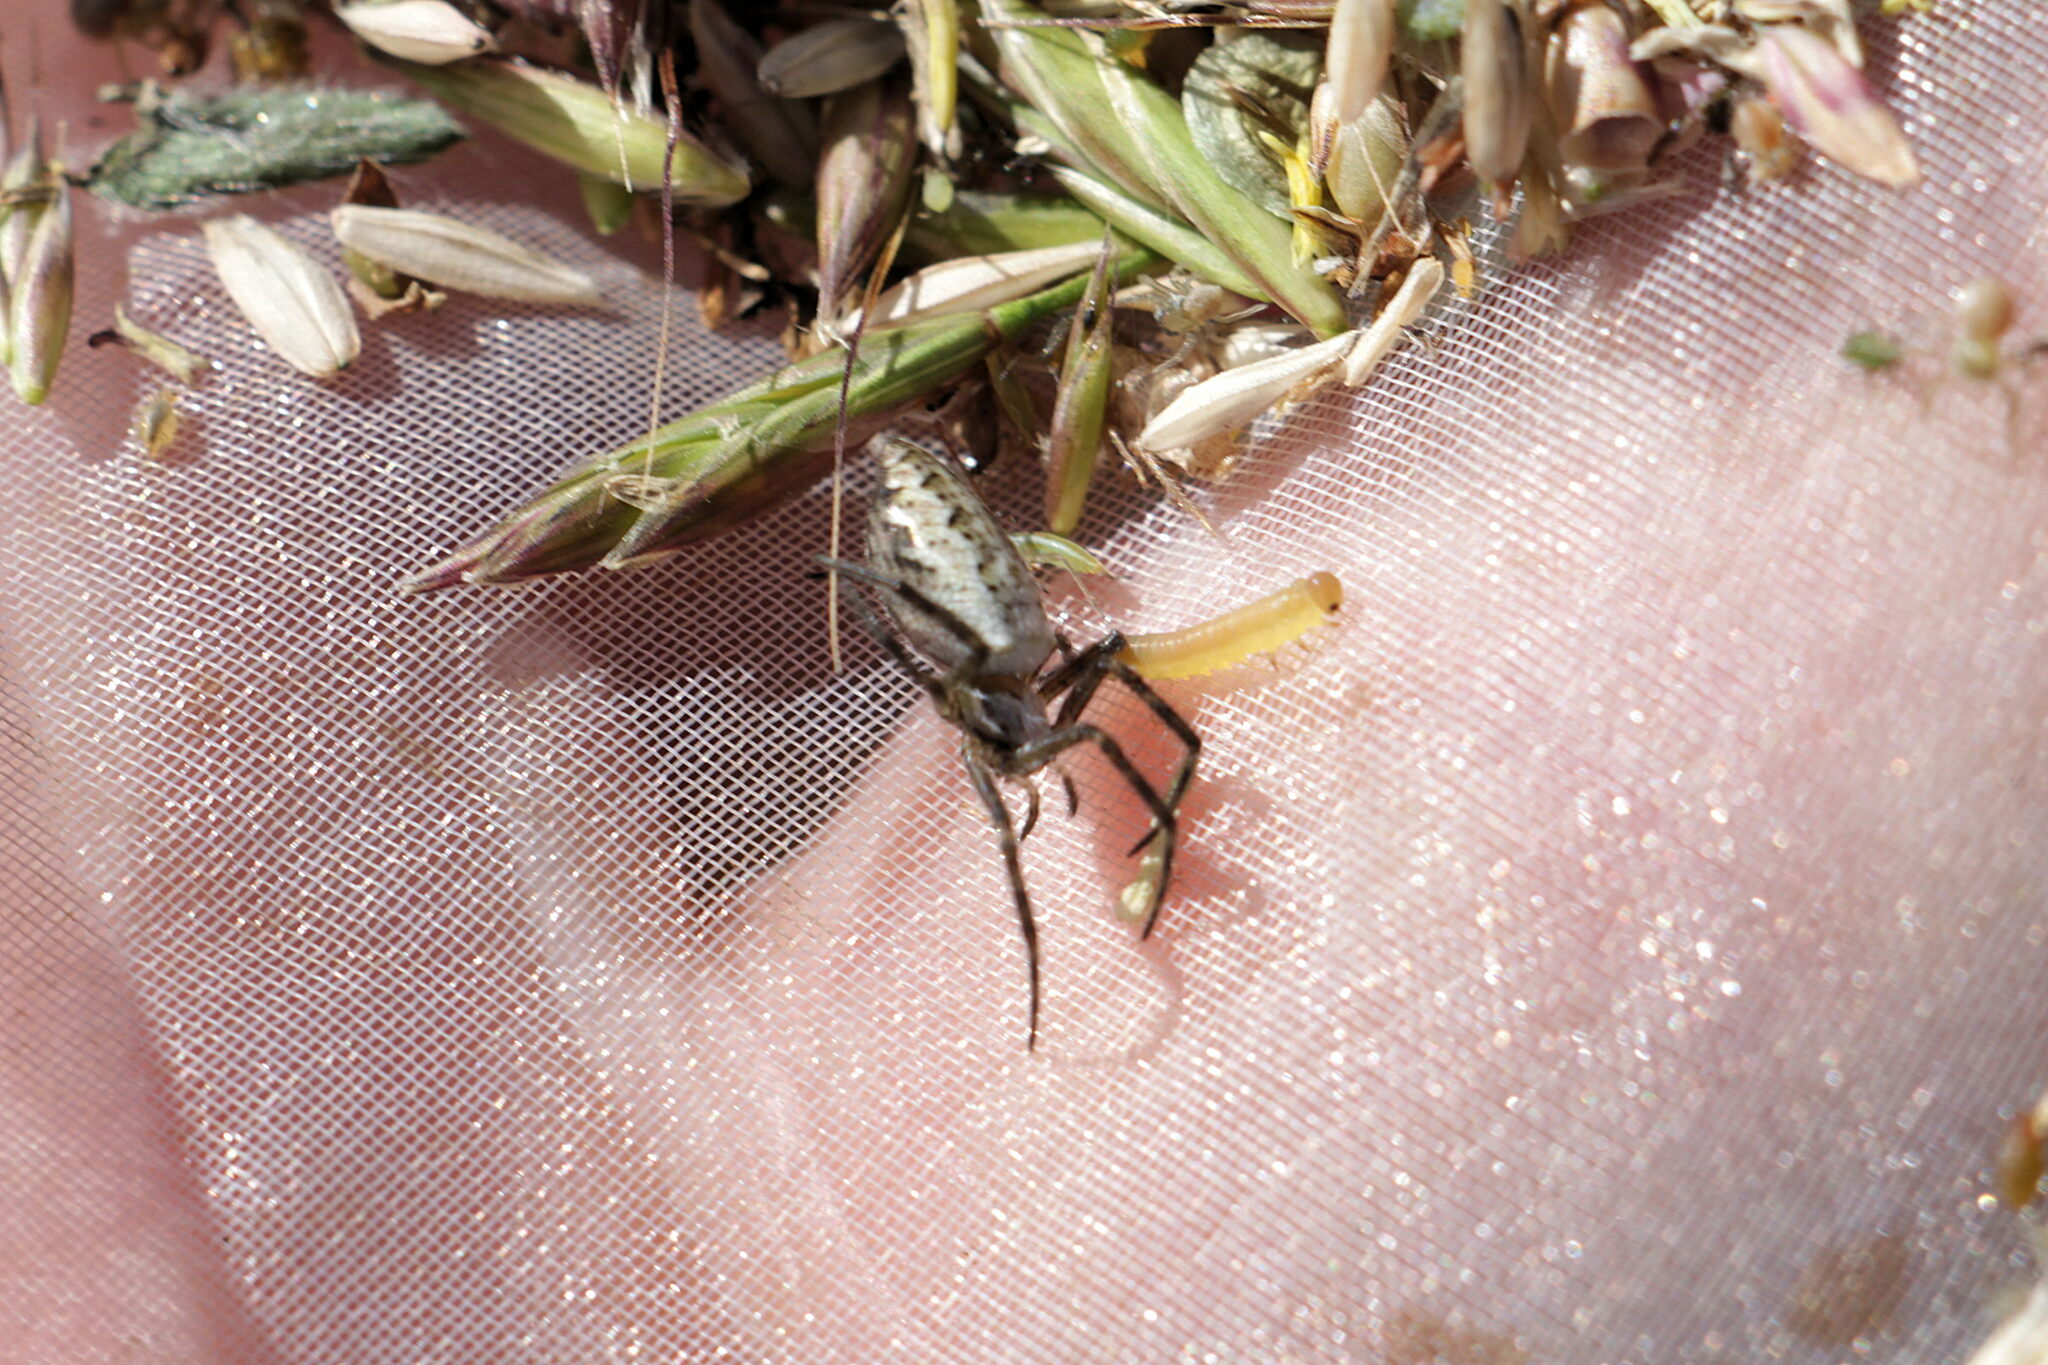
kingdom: Animalia
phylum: Arthropoda
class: Arachnida
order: Araneae
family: Araneidae
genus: Argiope
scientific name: Argiope bruennichi
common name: Wasp spider
